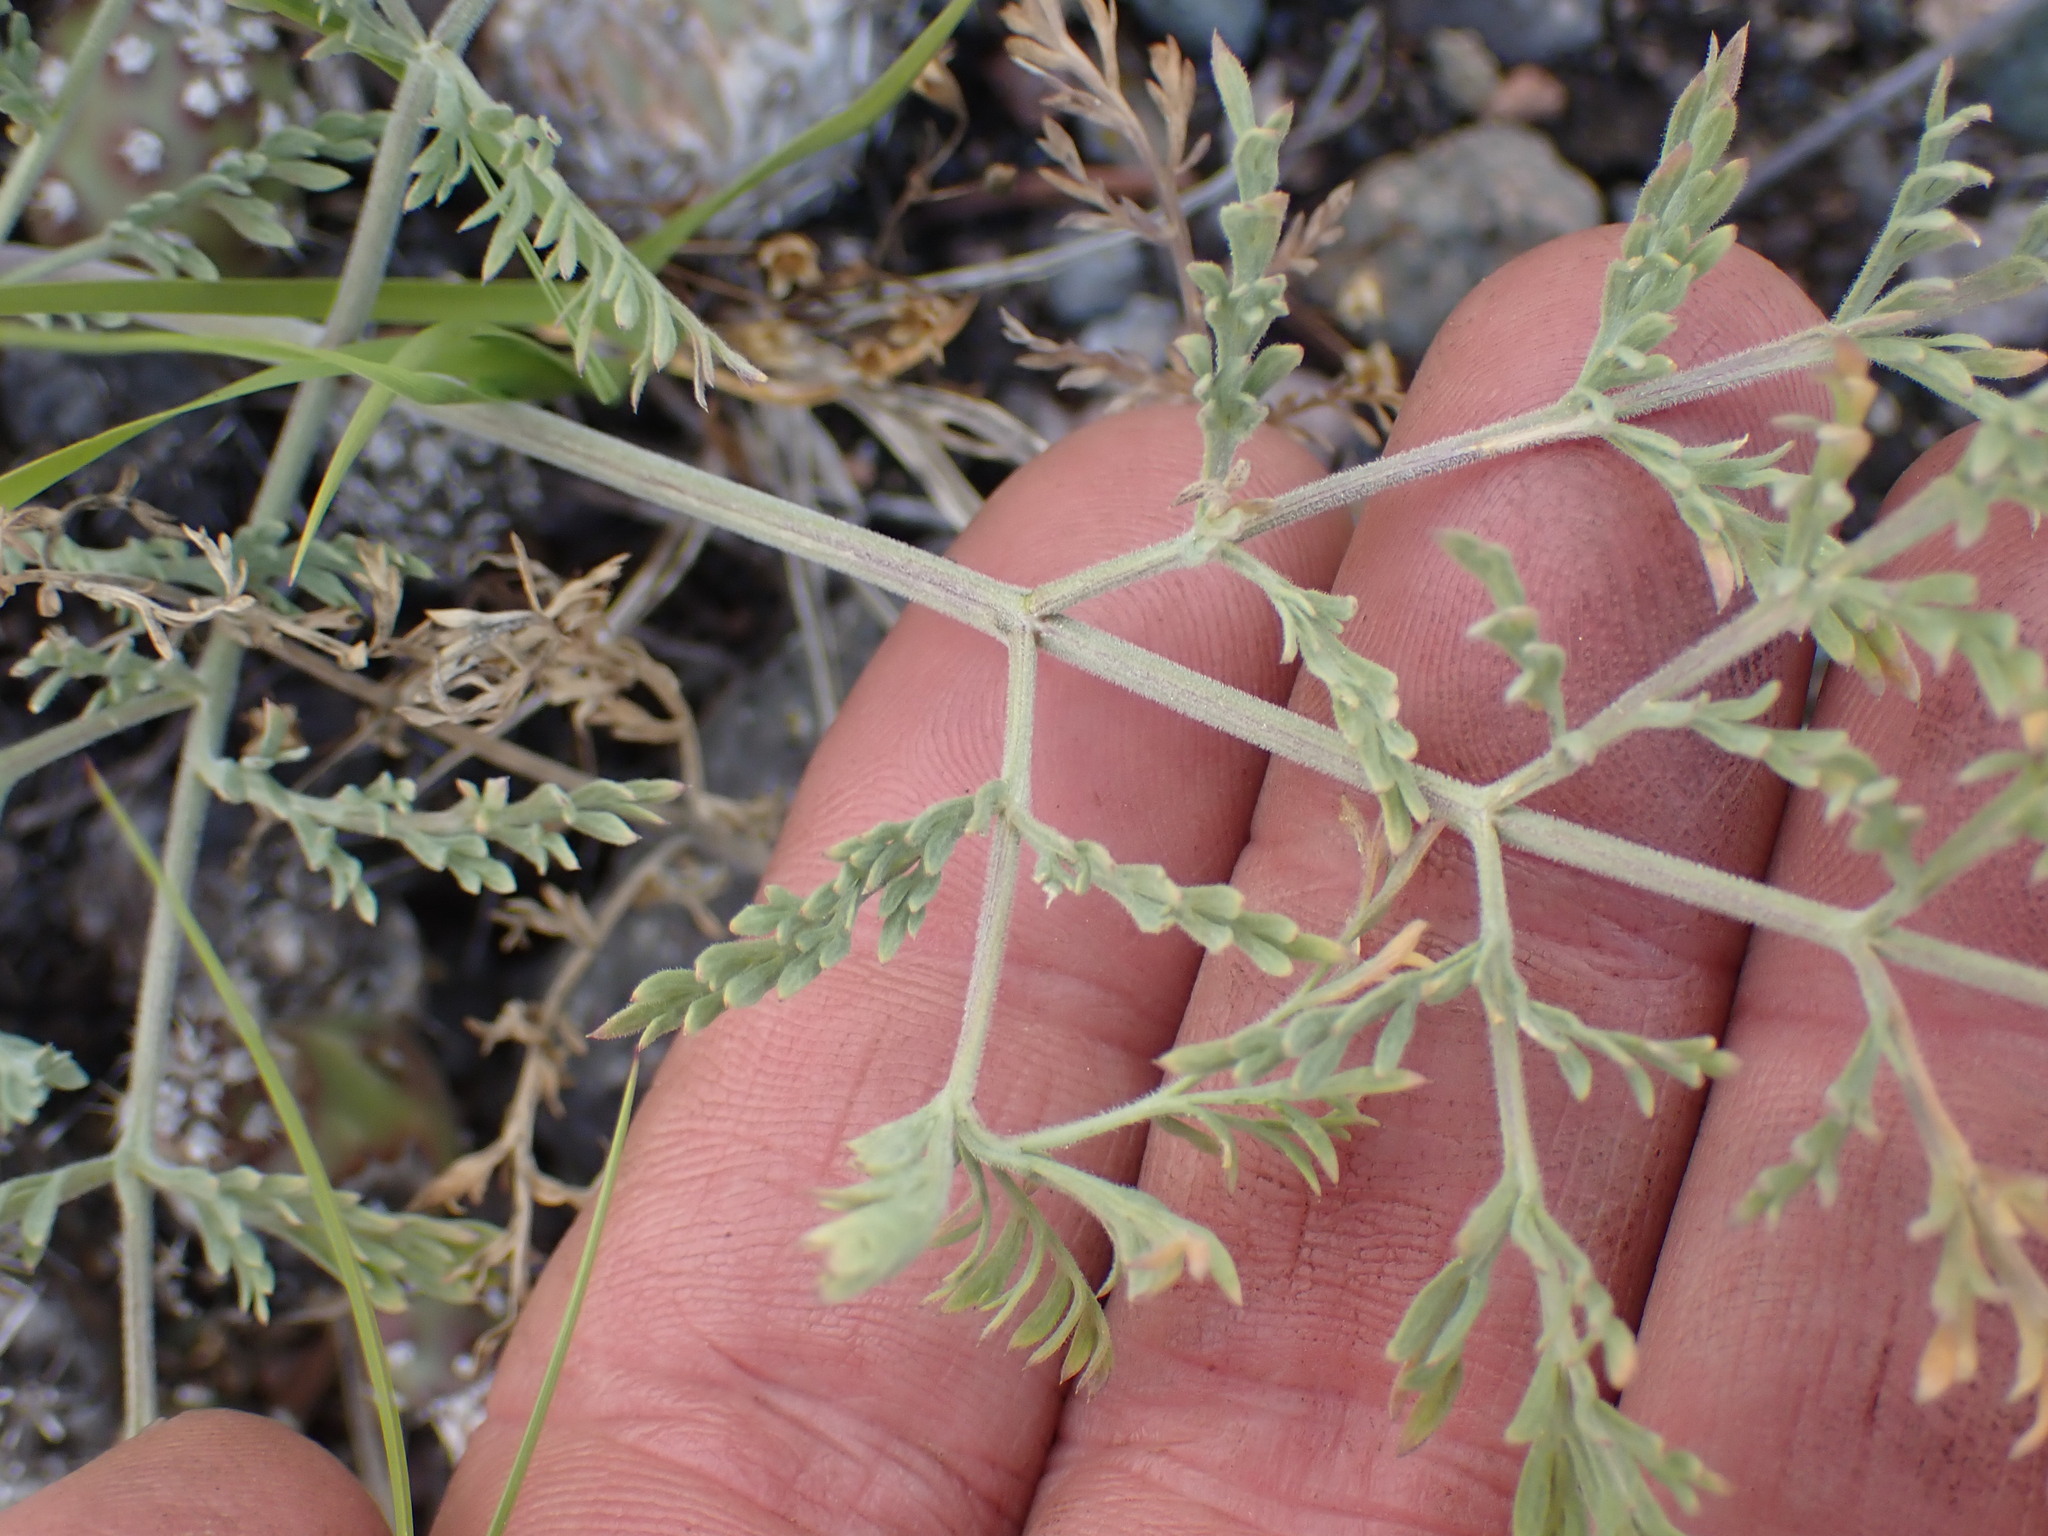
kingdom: Plantae
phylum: Tracheophyta
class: Magnoliopsida
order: Apiales
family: Apiaceae
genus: Lomatium
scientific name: Lomatium macrocarpum
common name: Big-seed biscuitroot
